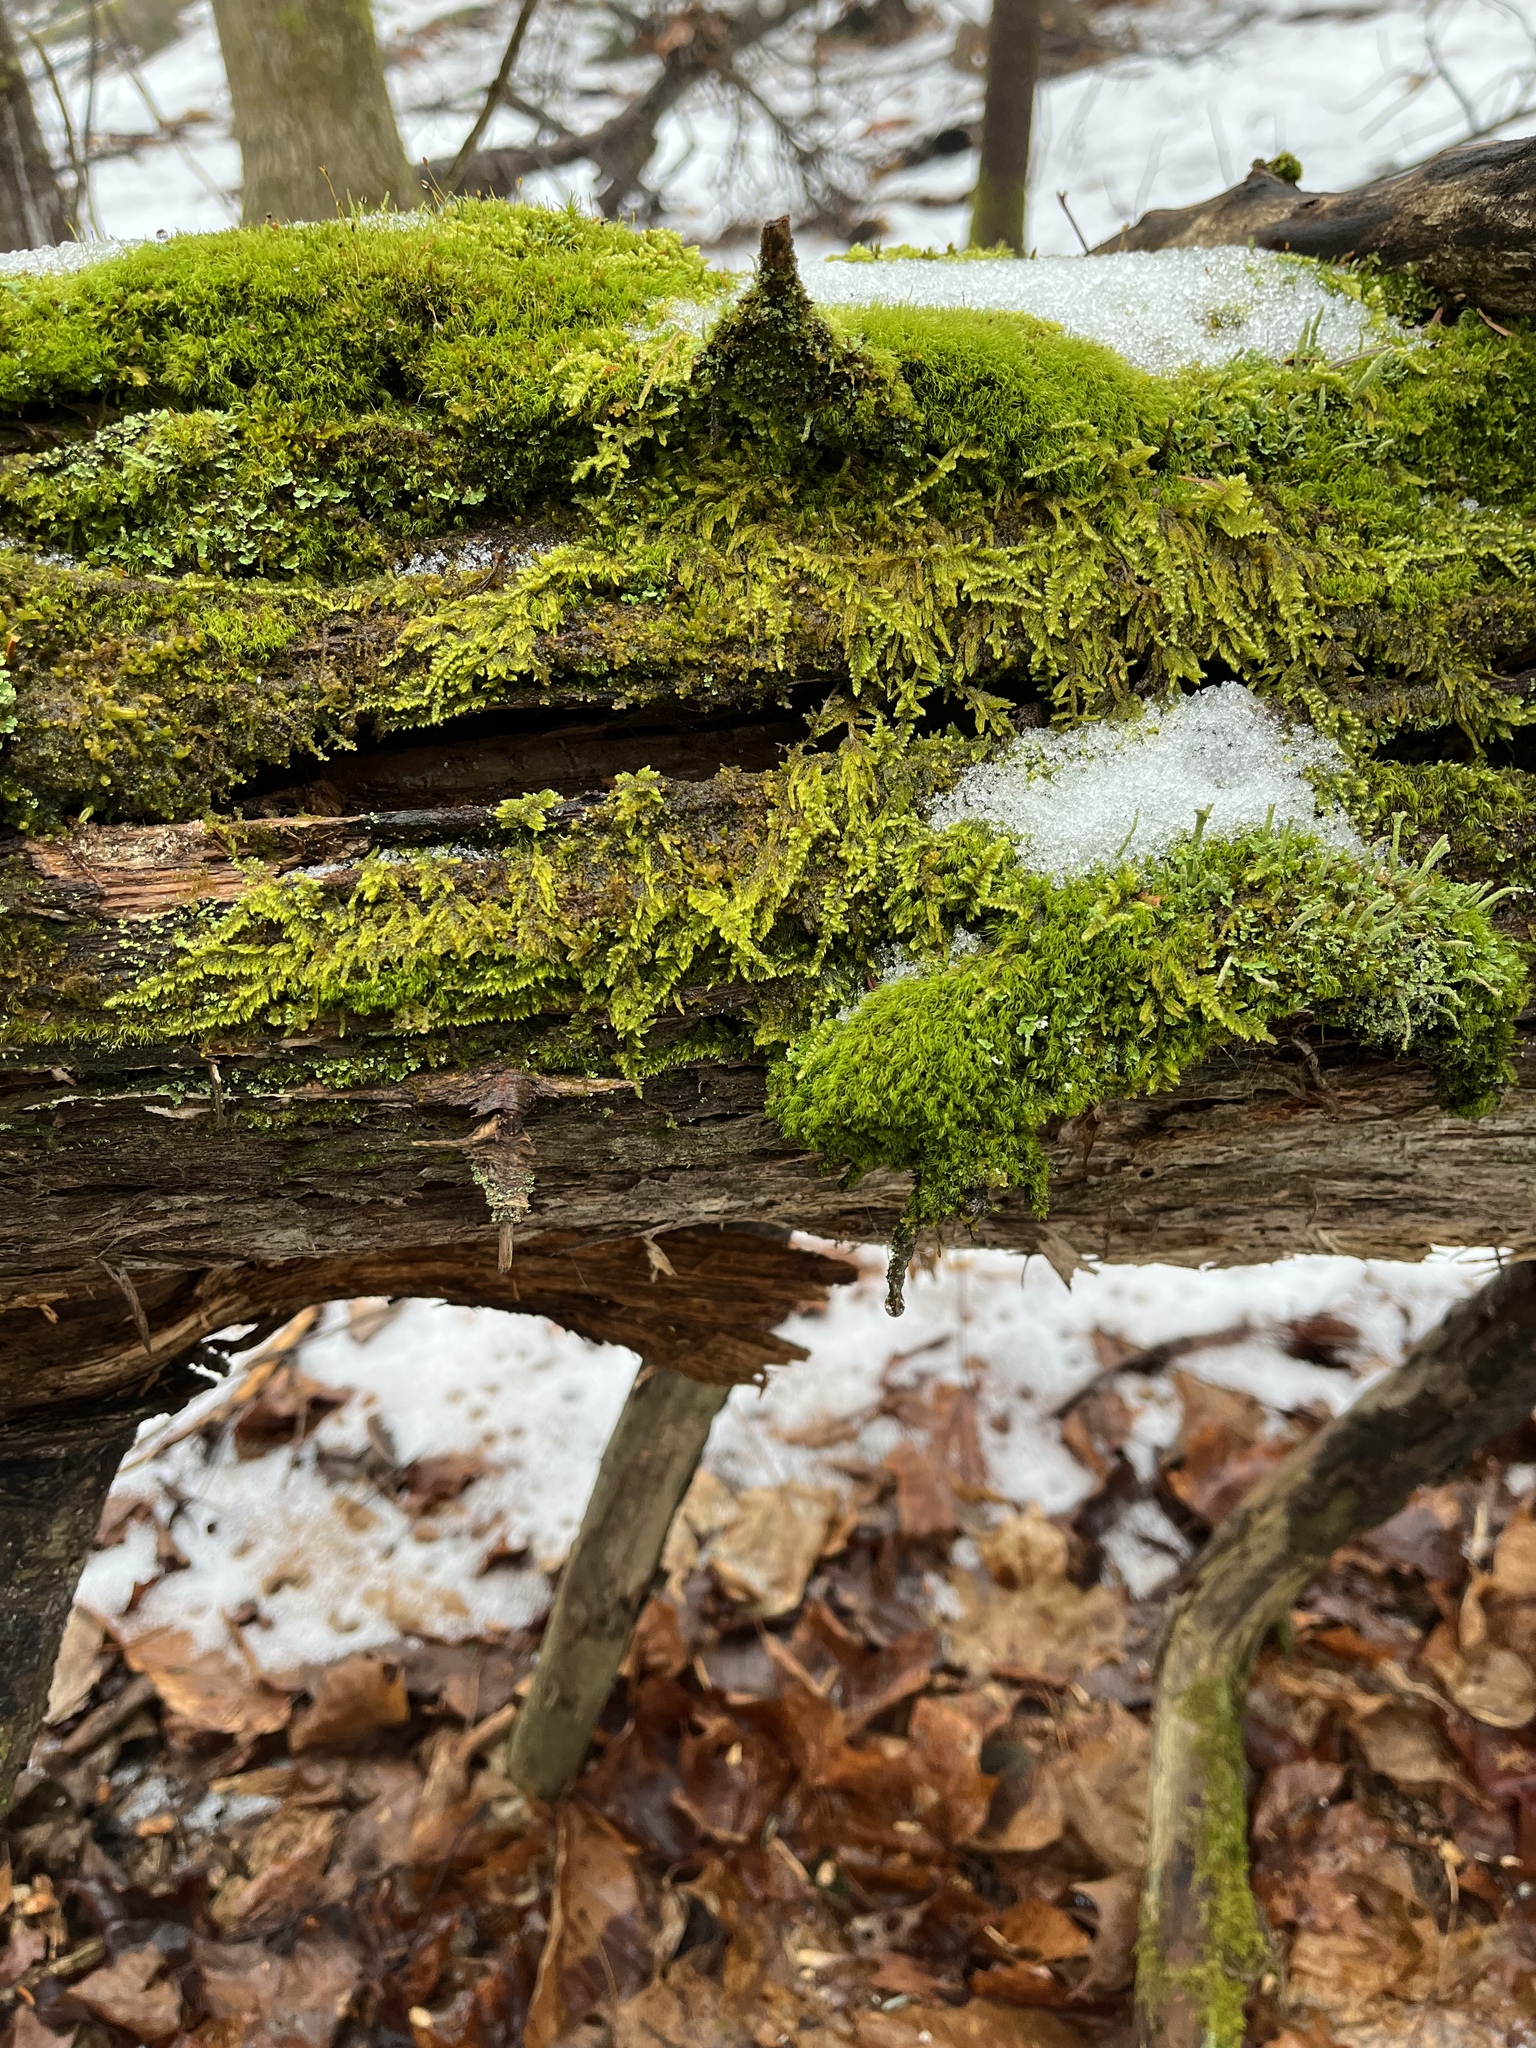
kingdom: Plantae
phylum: Bryophyta
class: Bryopsida
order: Hypnales
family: Callicladiaceae
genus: Callicladium
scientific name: Callicladium imponens
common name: Brocade moss
